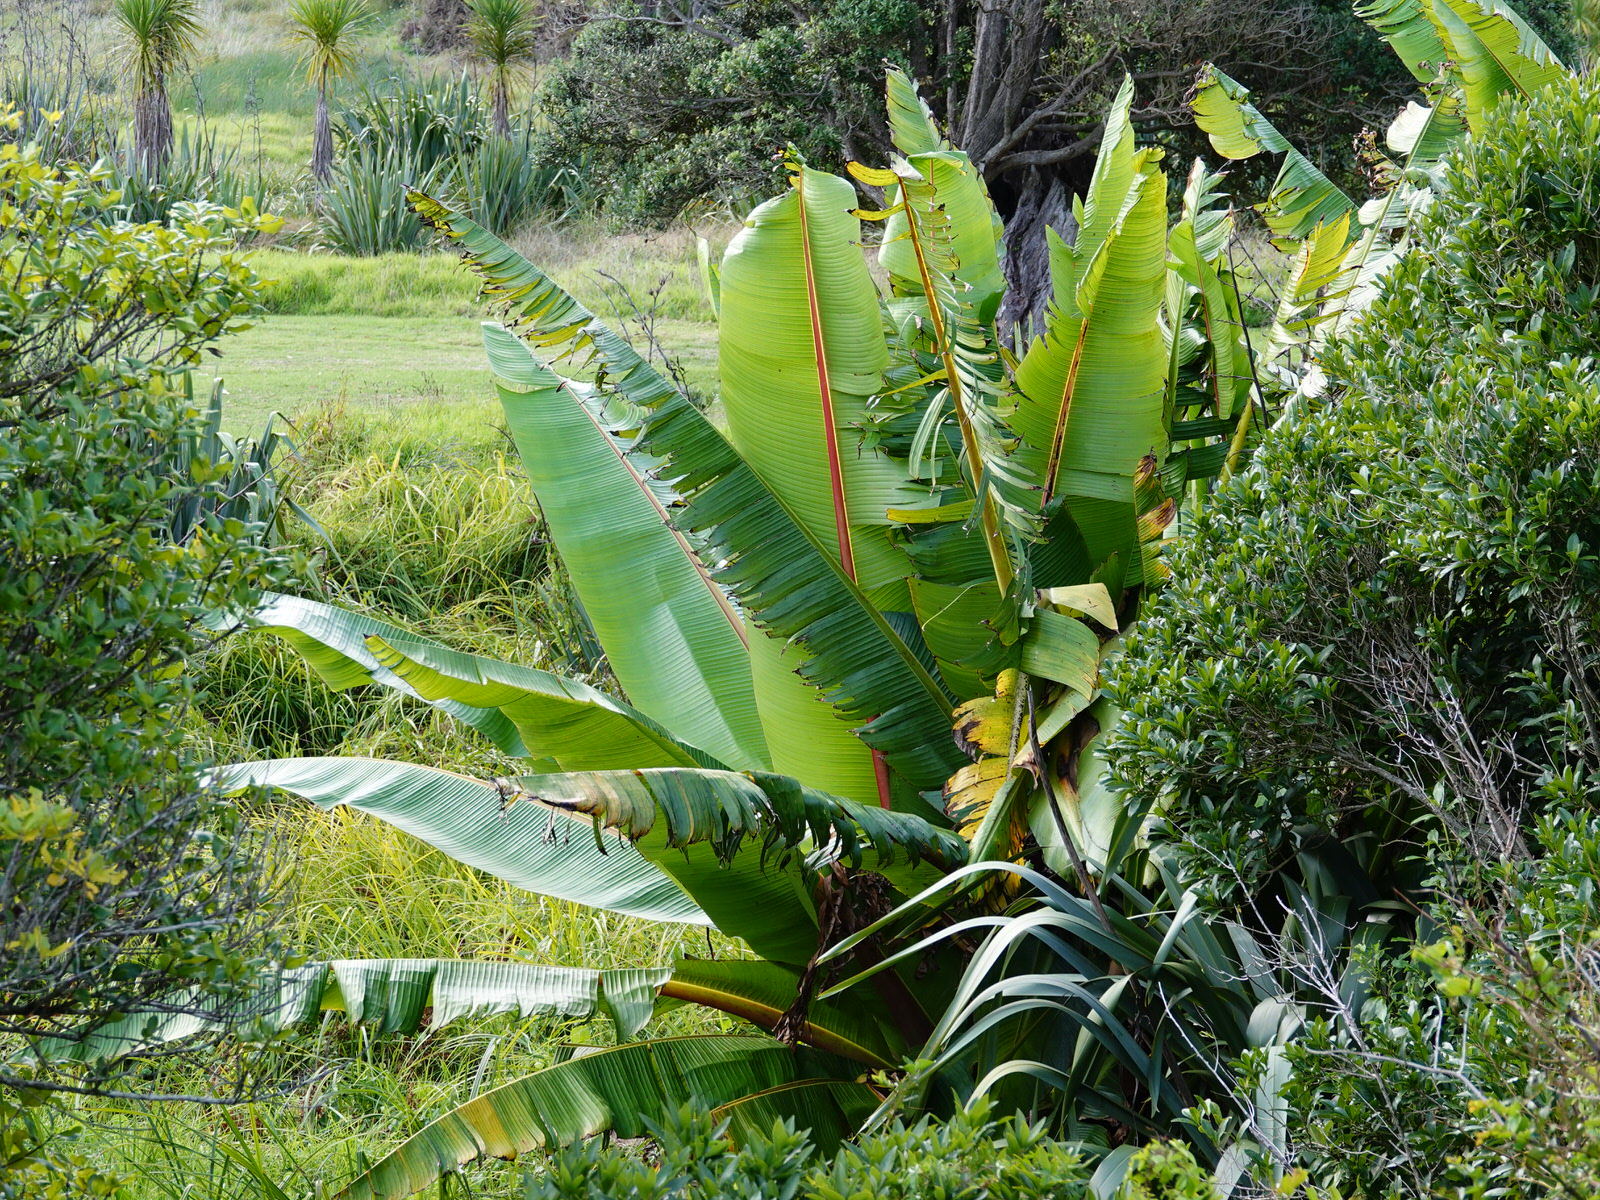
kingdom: Plantae
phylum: Tracheophyta
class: Liliopsida
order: Zingiberales
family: Musaceae
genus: Ensete
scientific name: Ensete ventricosum
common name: Abyssinian banana
